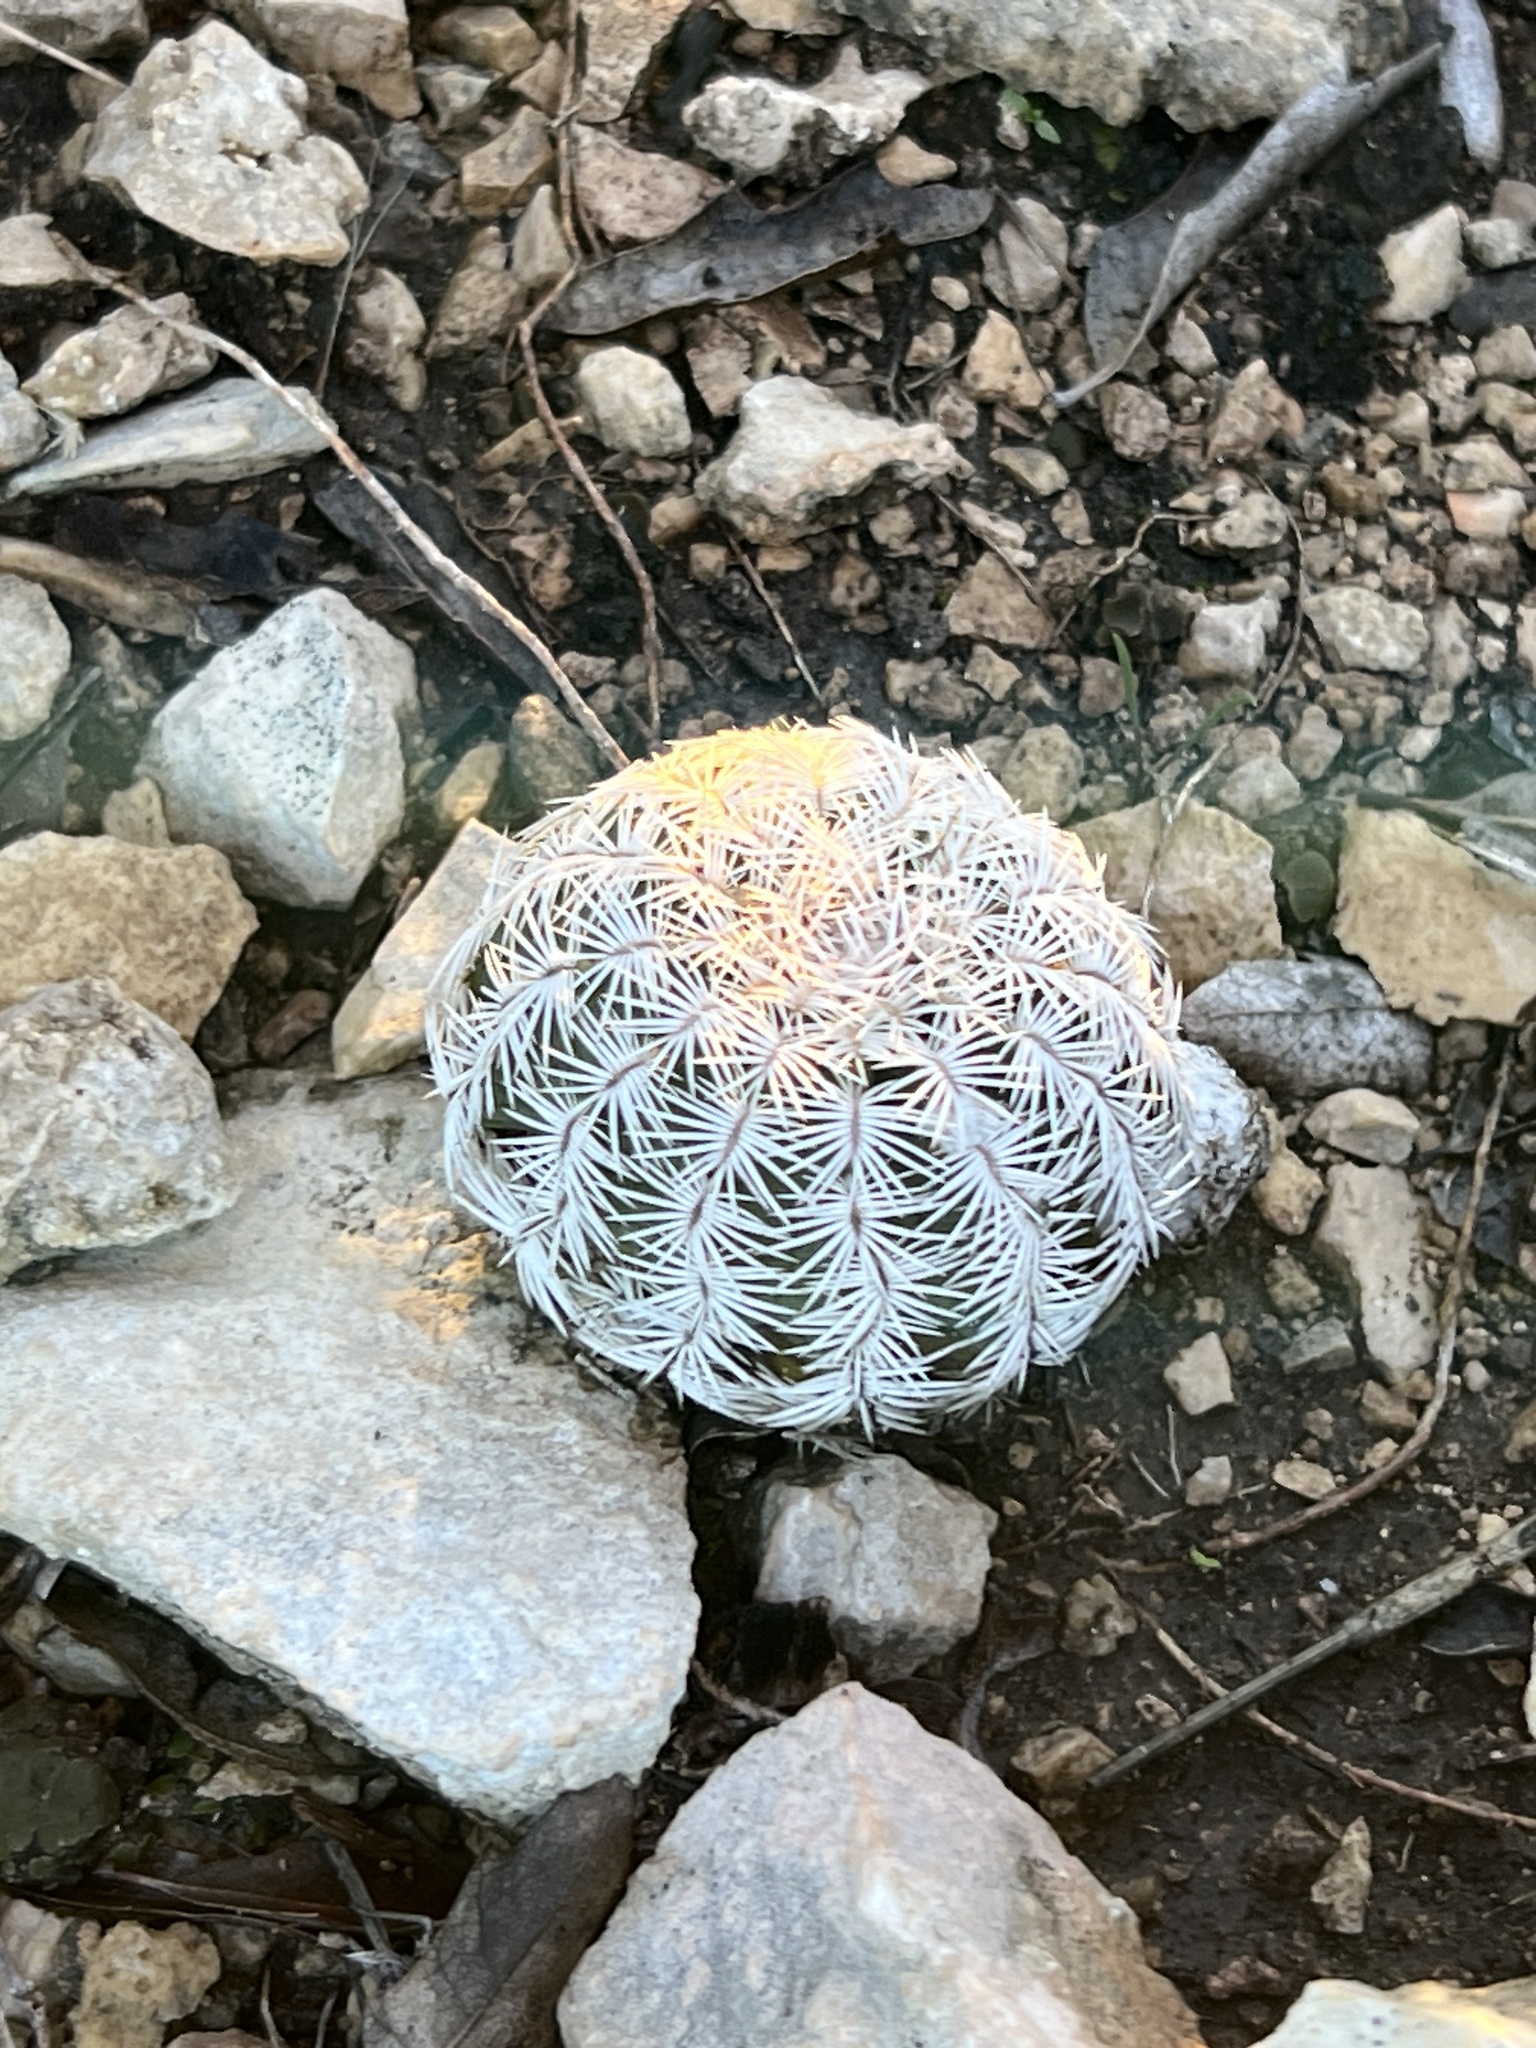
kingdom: Plantae
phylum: Tracheophyta
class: Magnoliopsida
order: Caryophyllales
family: Cactaceae
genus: Echinocereus
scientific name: Echinocereus reichenbachii
